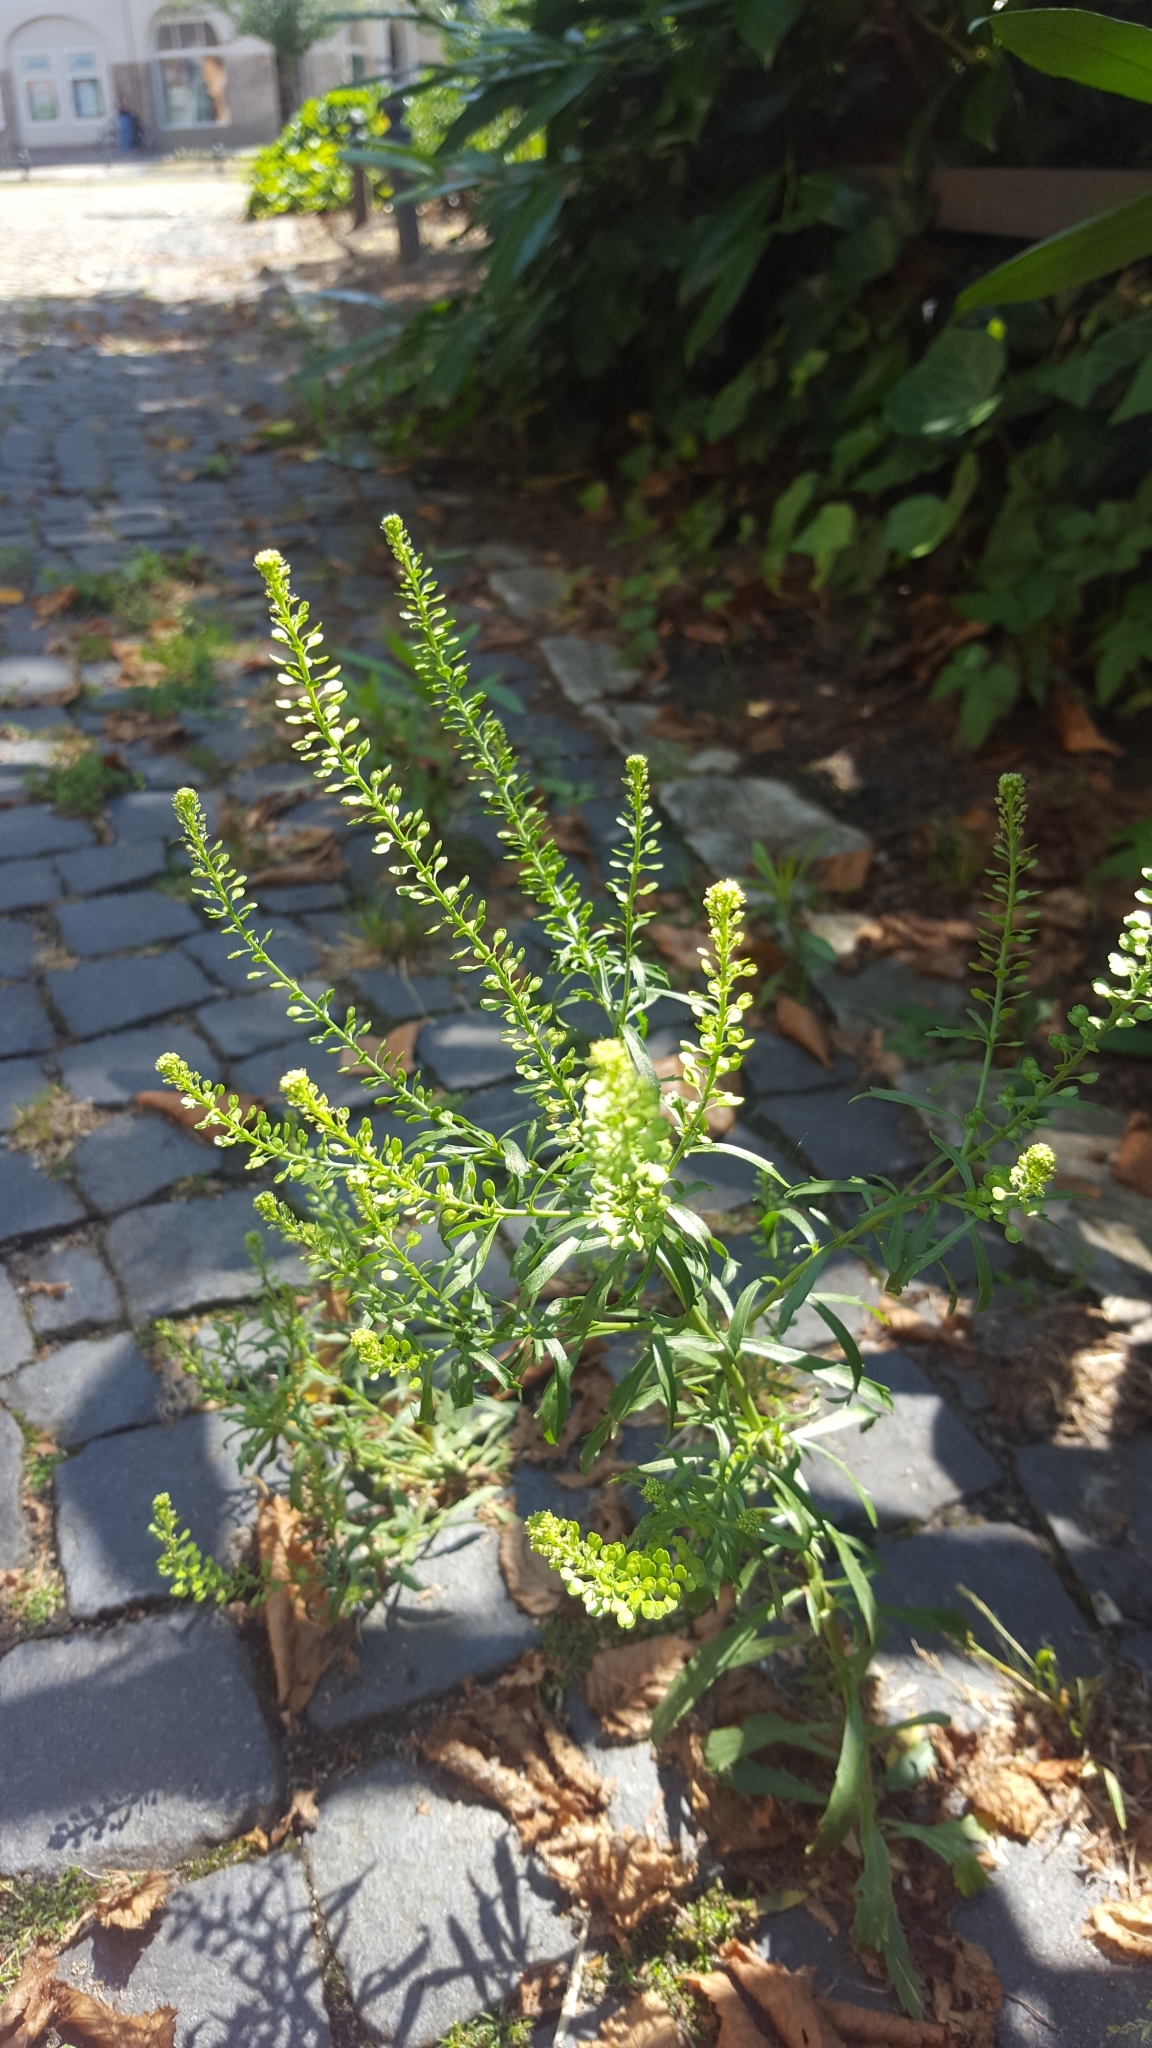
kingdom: Plantae
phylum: Tracheophyta
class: Magnoliopsida
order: Brassicales
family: Brassicaceae
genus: Lepidium
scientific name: Lepidium virginicum
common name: Least pepperwort
